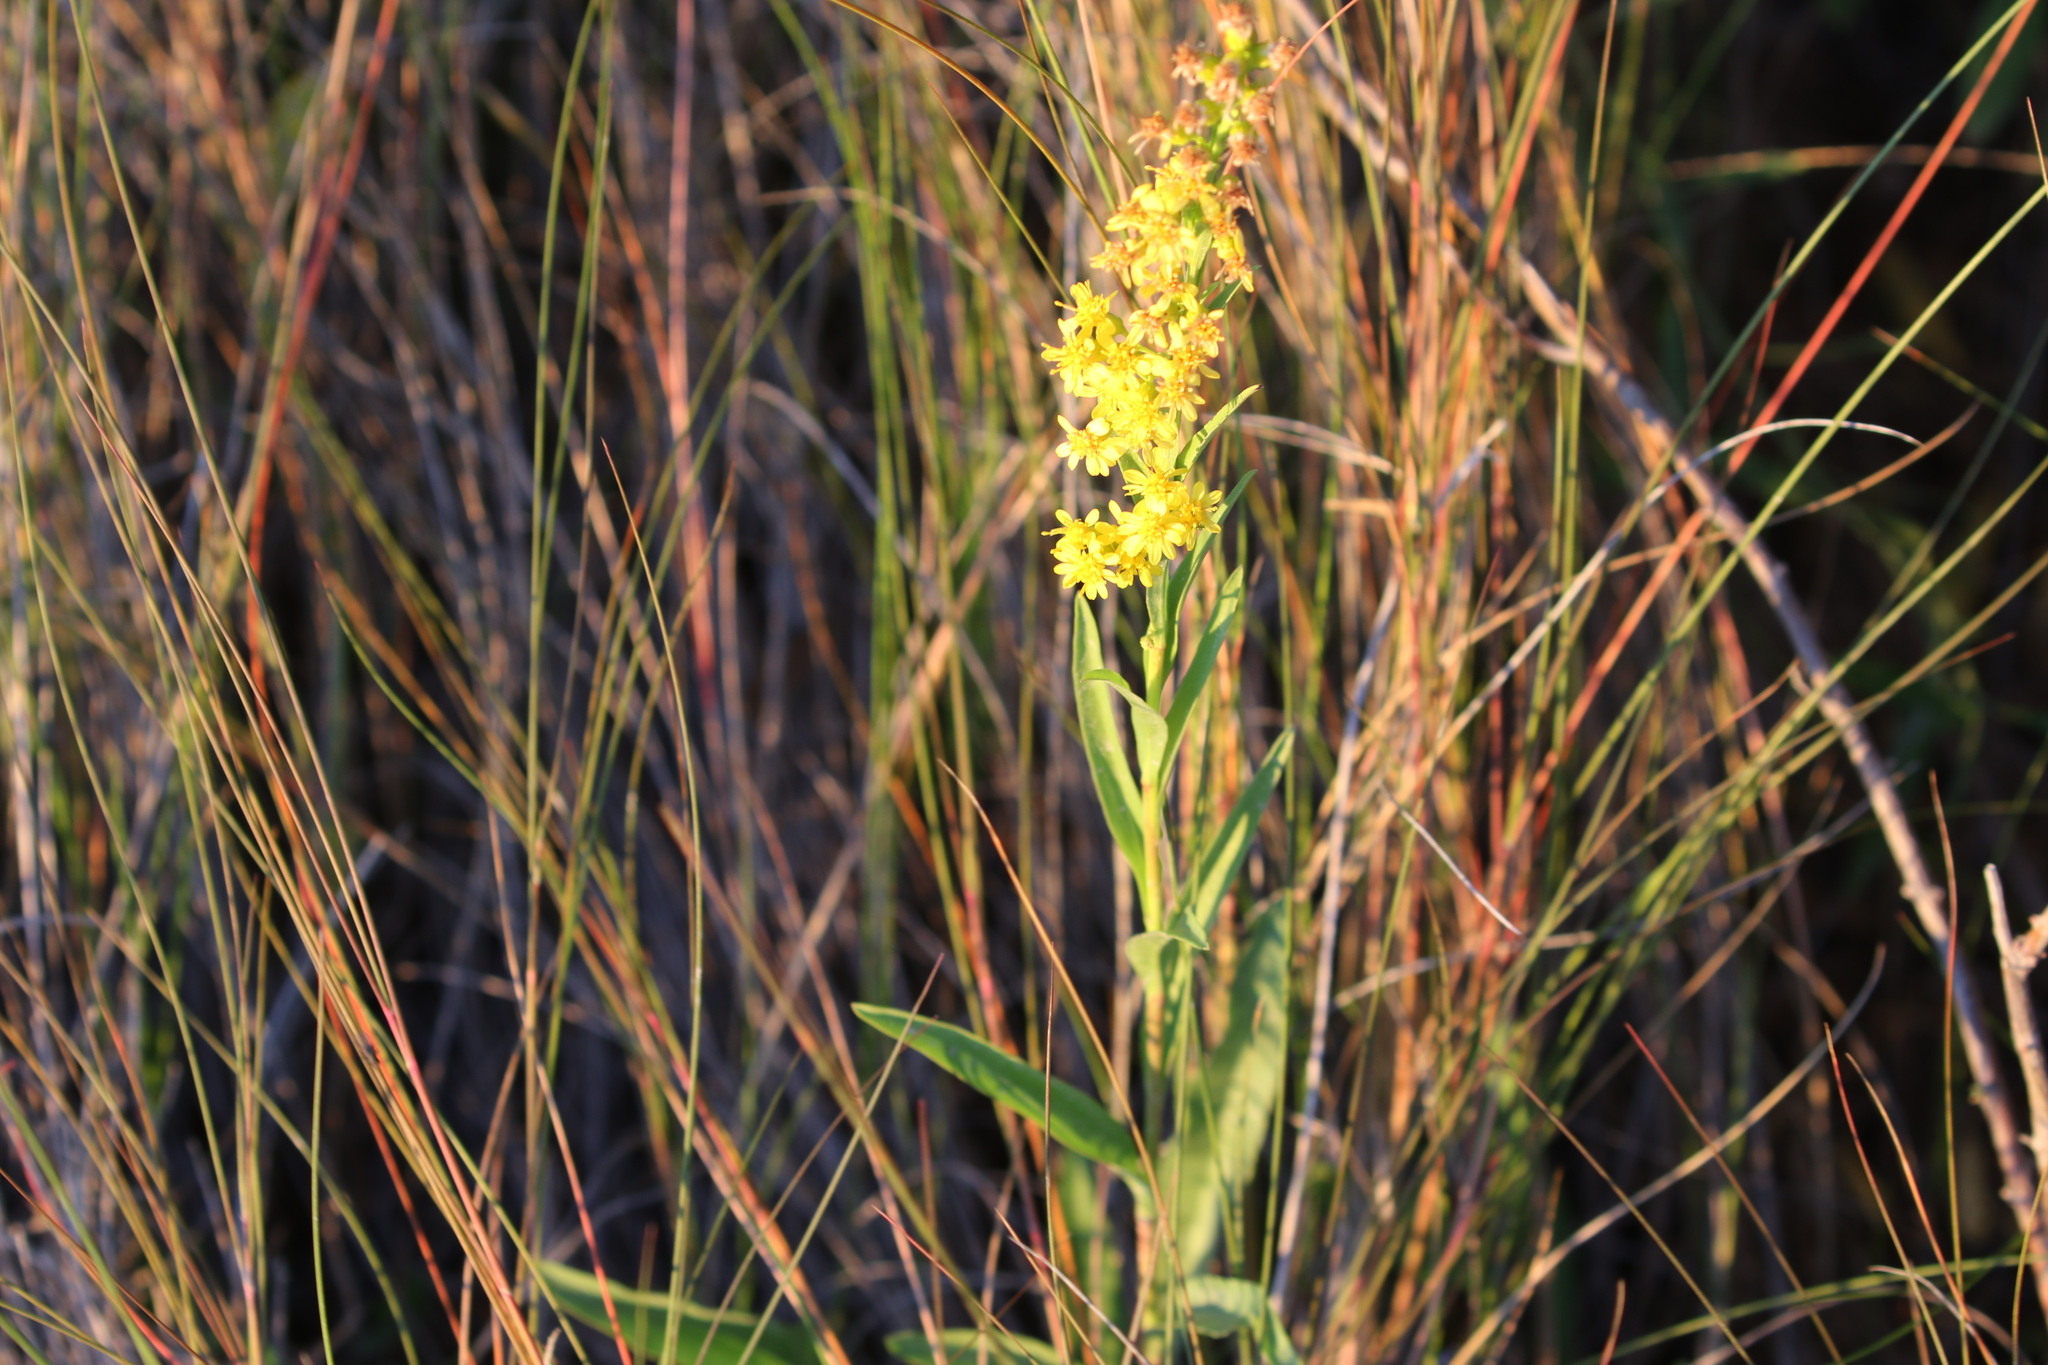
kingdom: Plantae
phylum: Tracheophyta
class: Magnoliopsida
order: Asterales
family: Asteraceae
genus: Solidago
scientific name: Solidago mexicana
